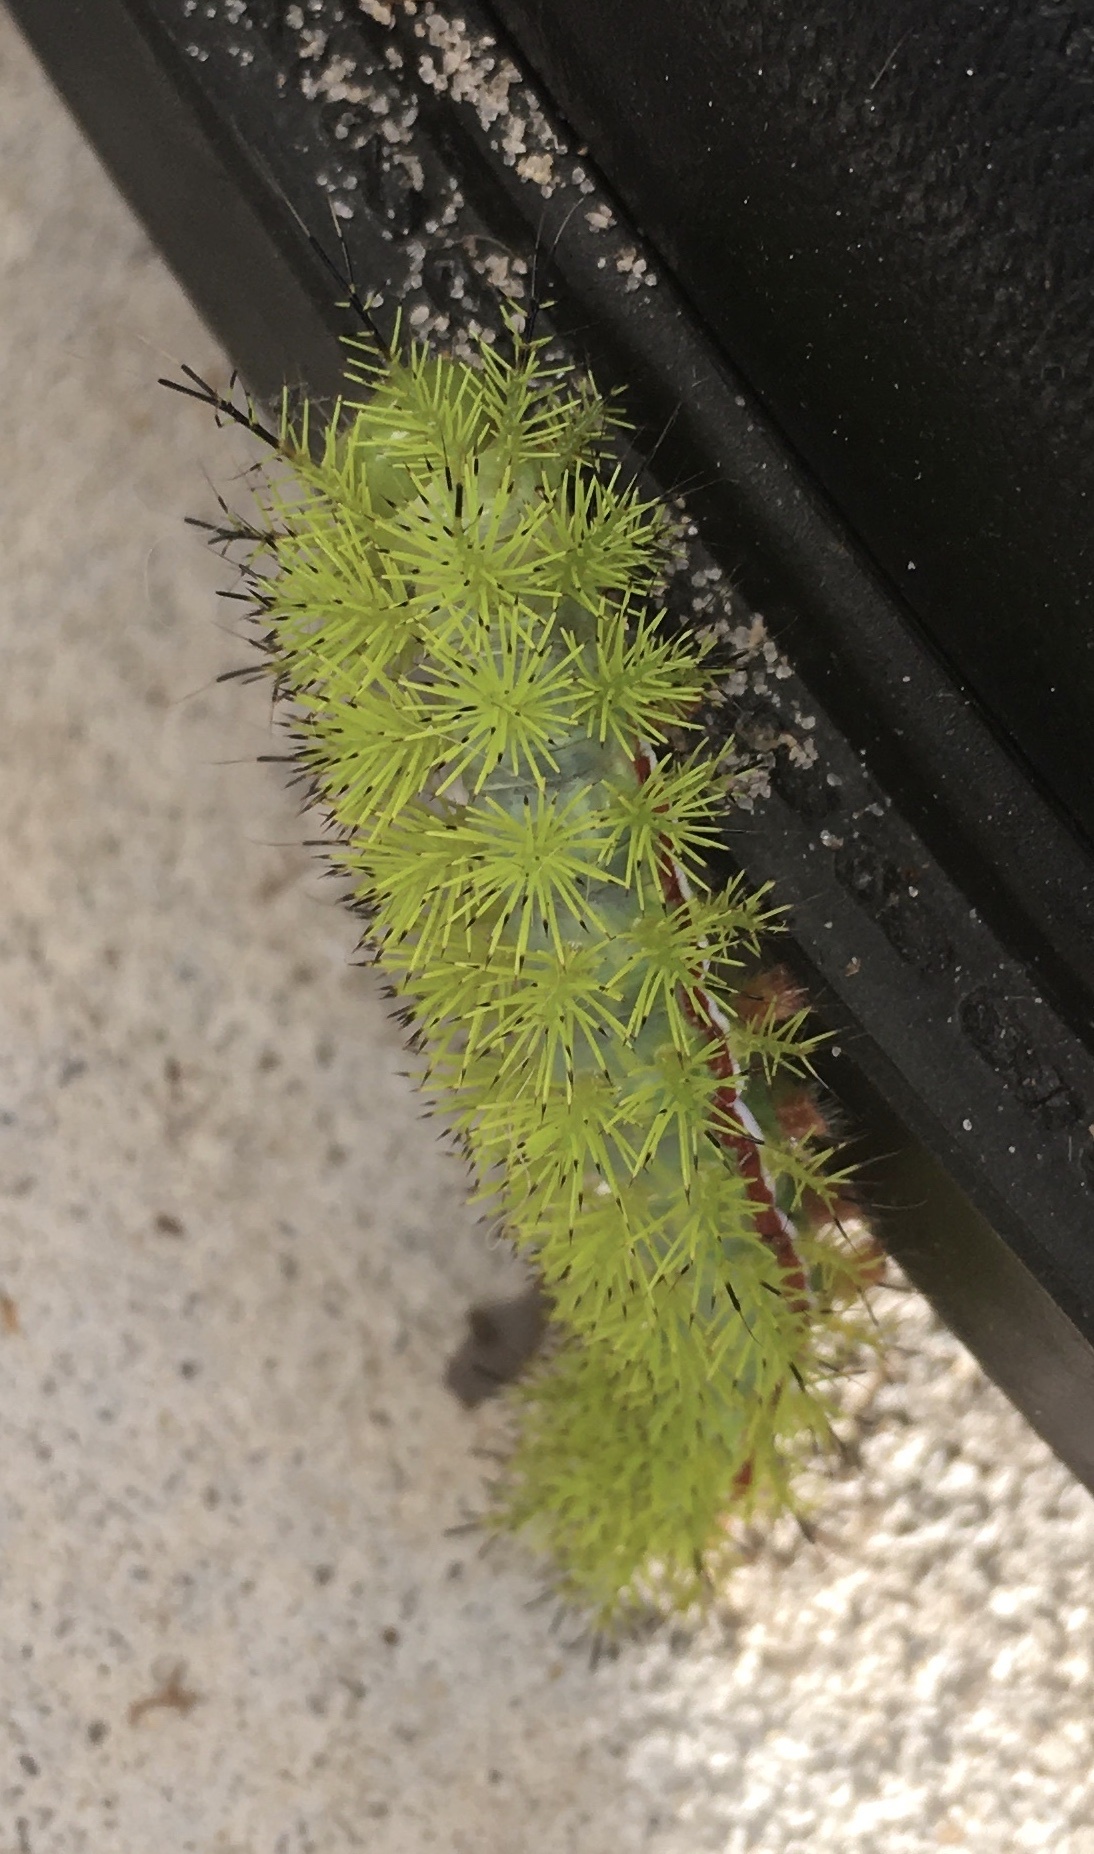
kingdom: Animalia
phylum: Arthropoda
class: Insecta
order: Lepidoptera
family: Saturniidae
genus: Automeris
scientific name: Automeris io
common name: Io moth
